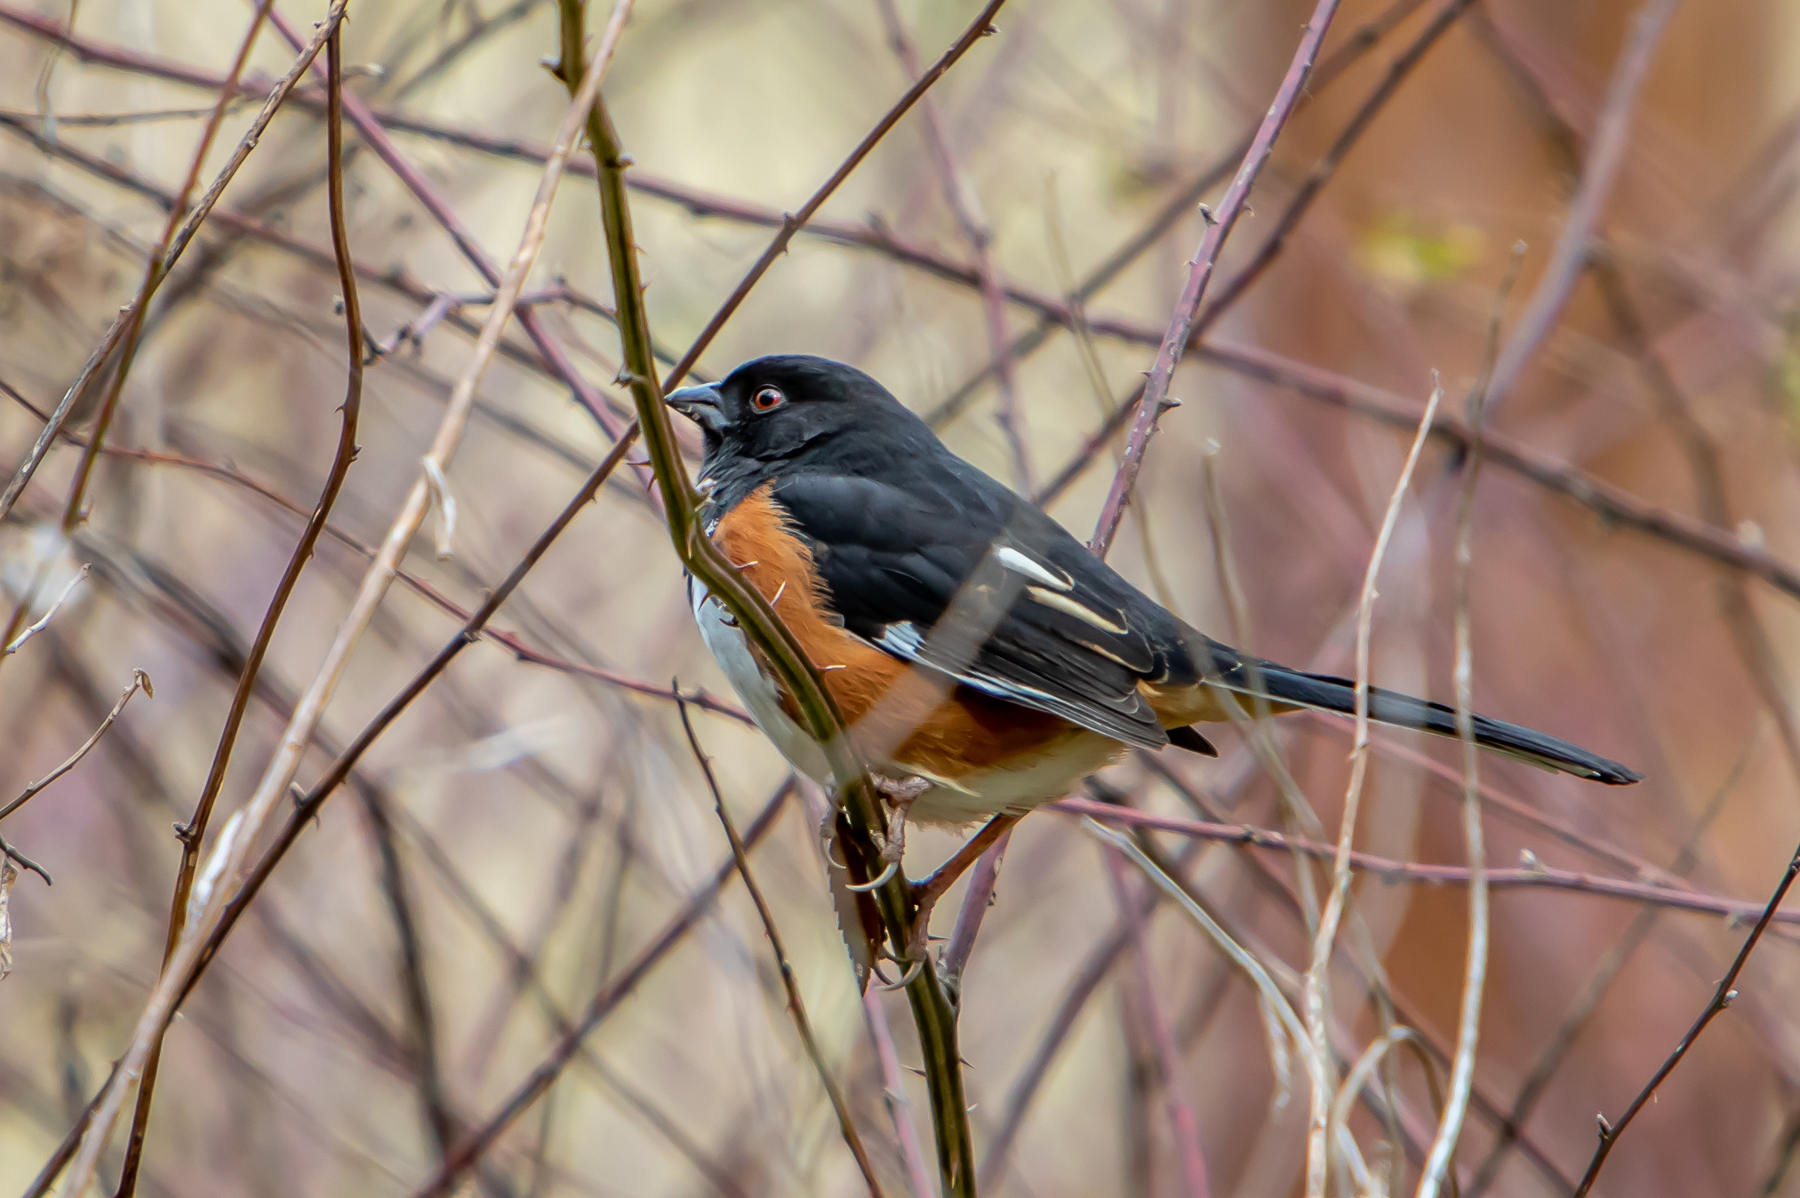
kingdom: Animalia
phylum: Chordata
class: Aves
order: Passeriformes
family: Passerellidae
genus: Pipilo
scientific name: Pipilo erythrophthalmus
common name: Eastern towhee
